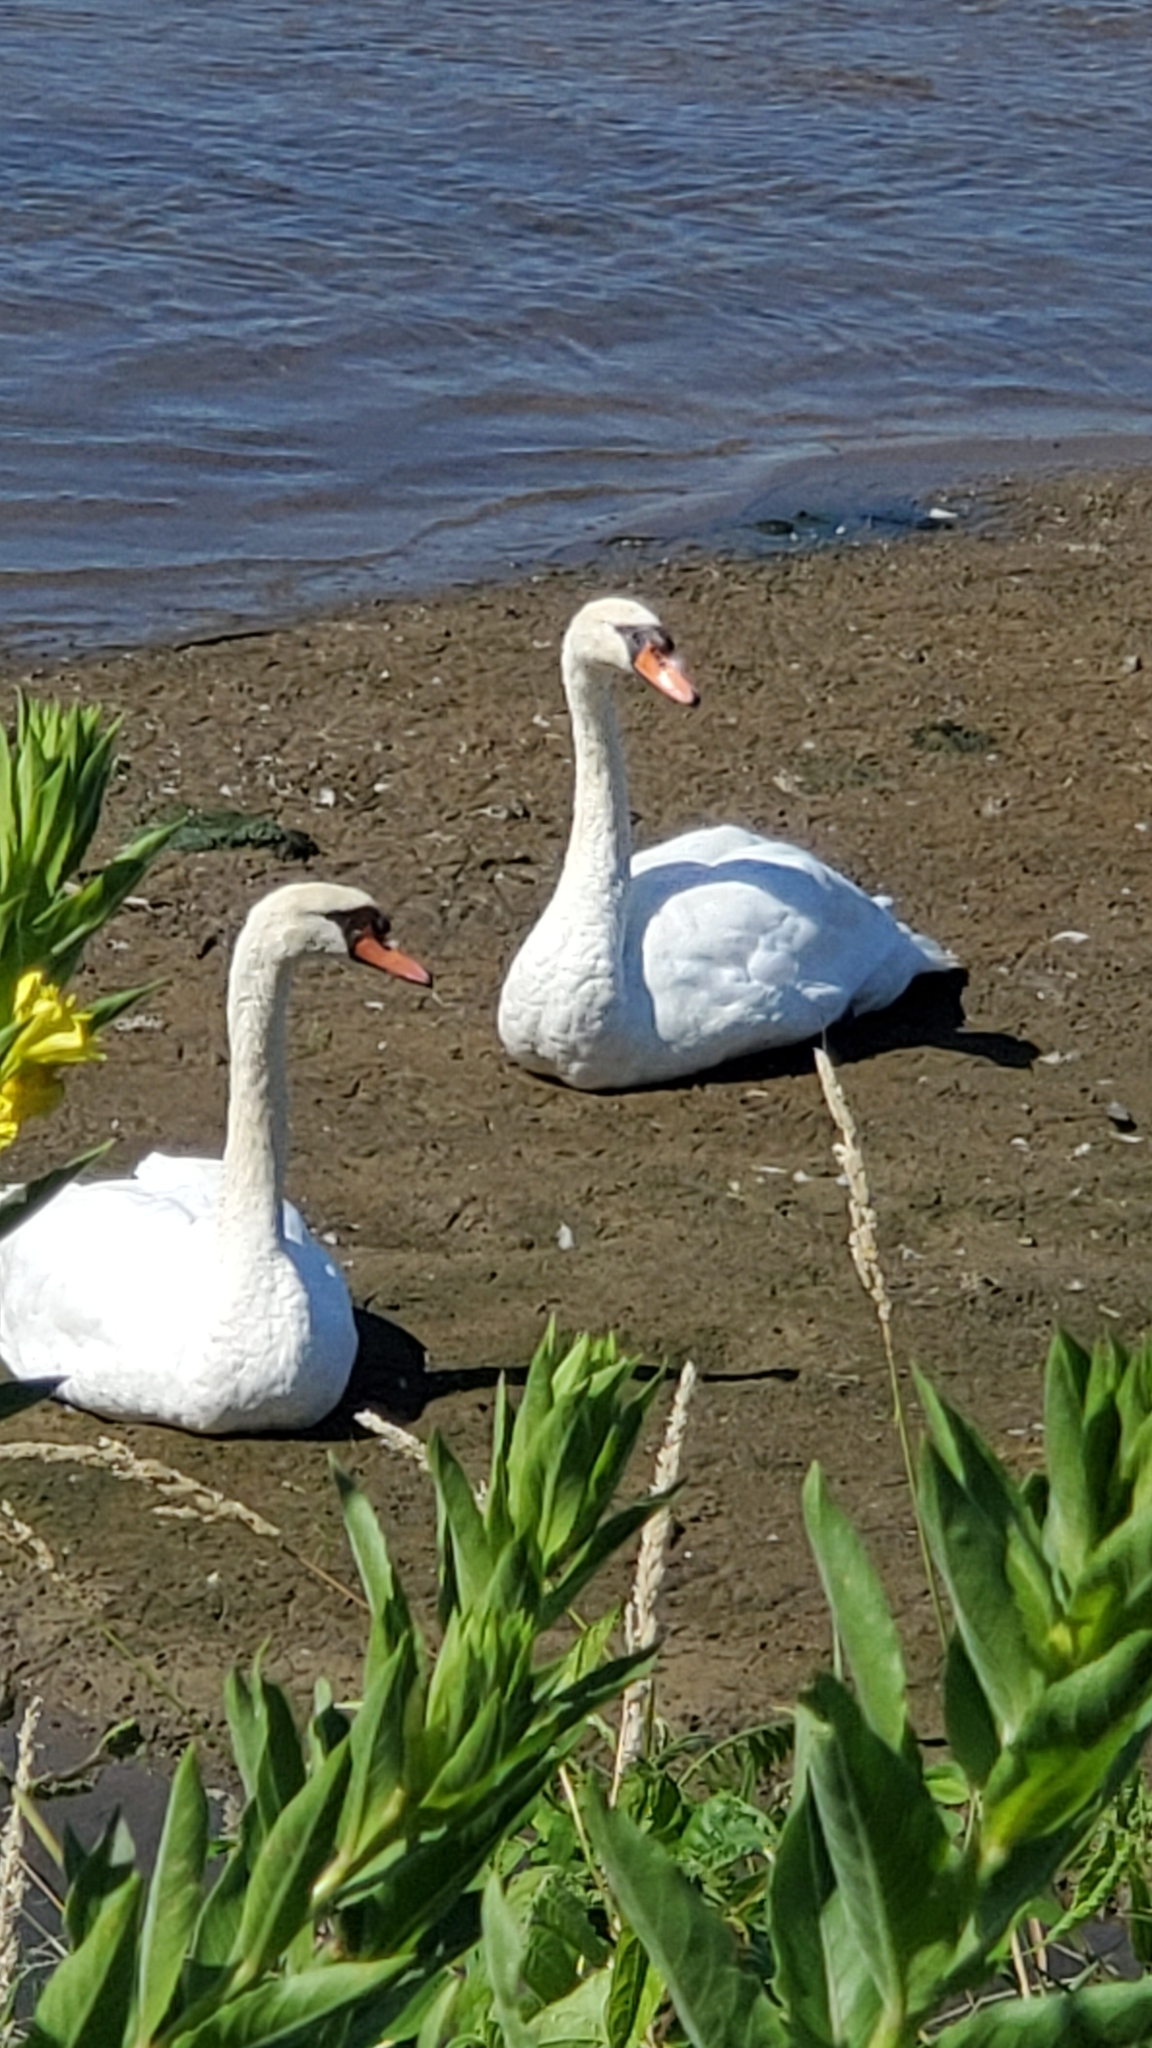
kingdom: Animalia
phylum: Chordata
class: Aves
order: Anseriformes
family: Anatidae
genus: Cygnus
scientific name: Cygnus olor
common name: Mute swan
